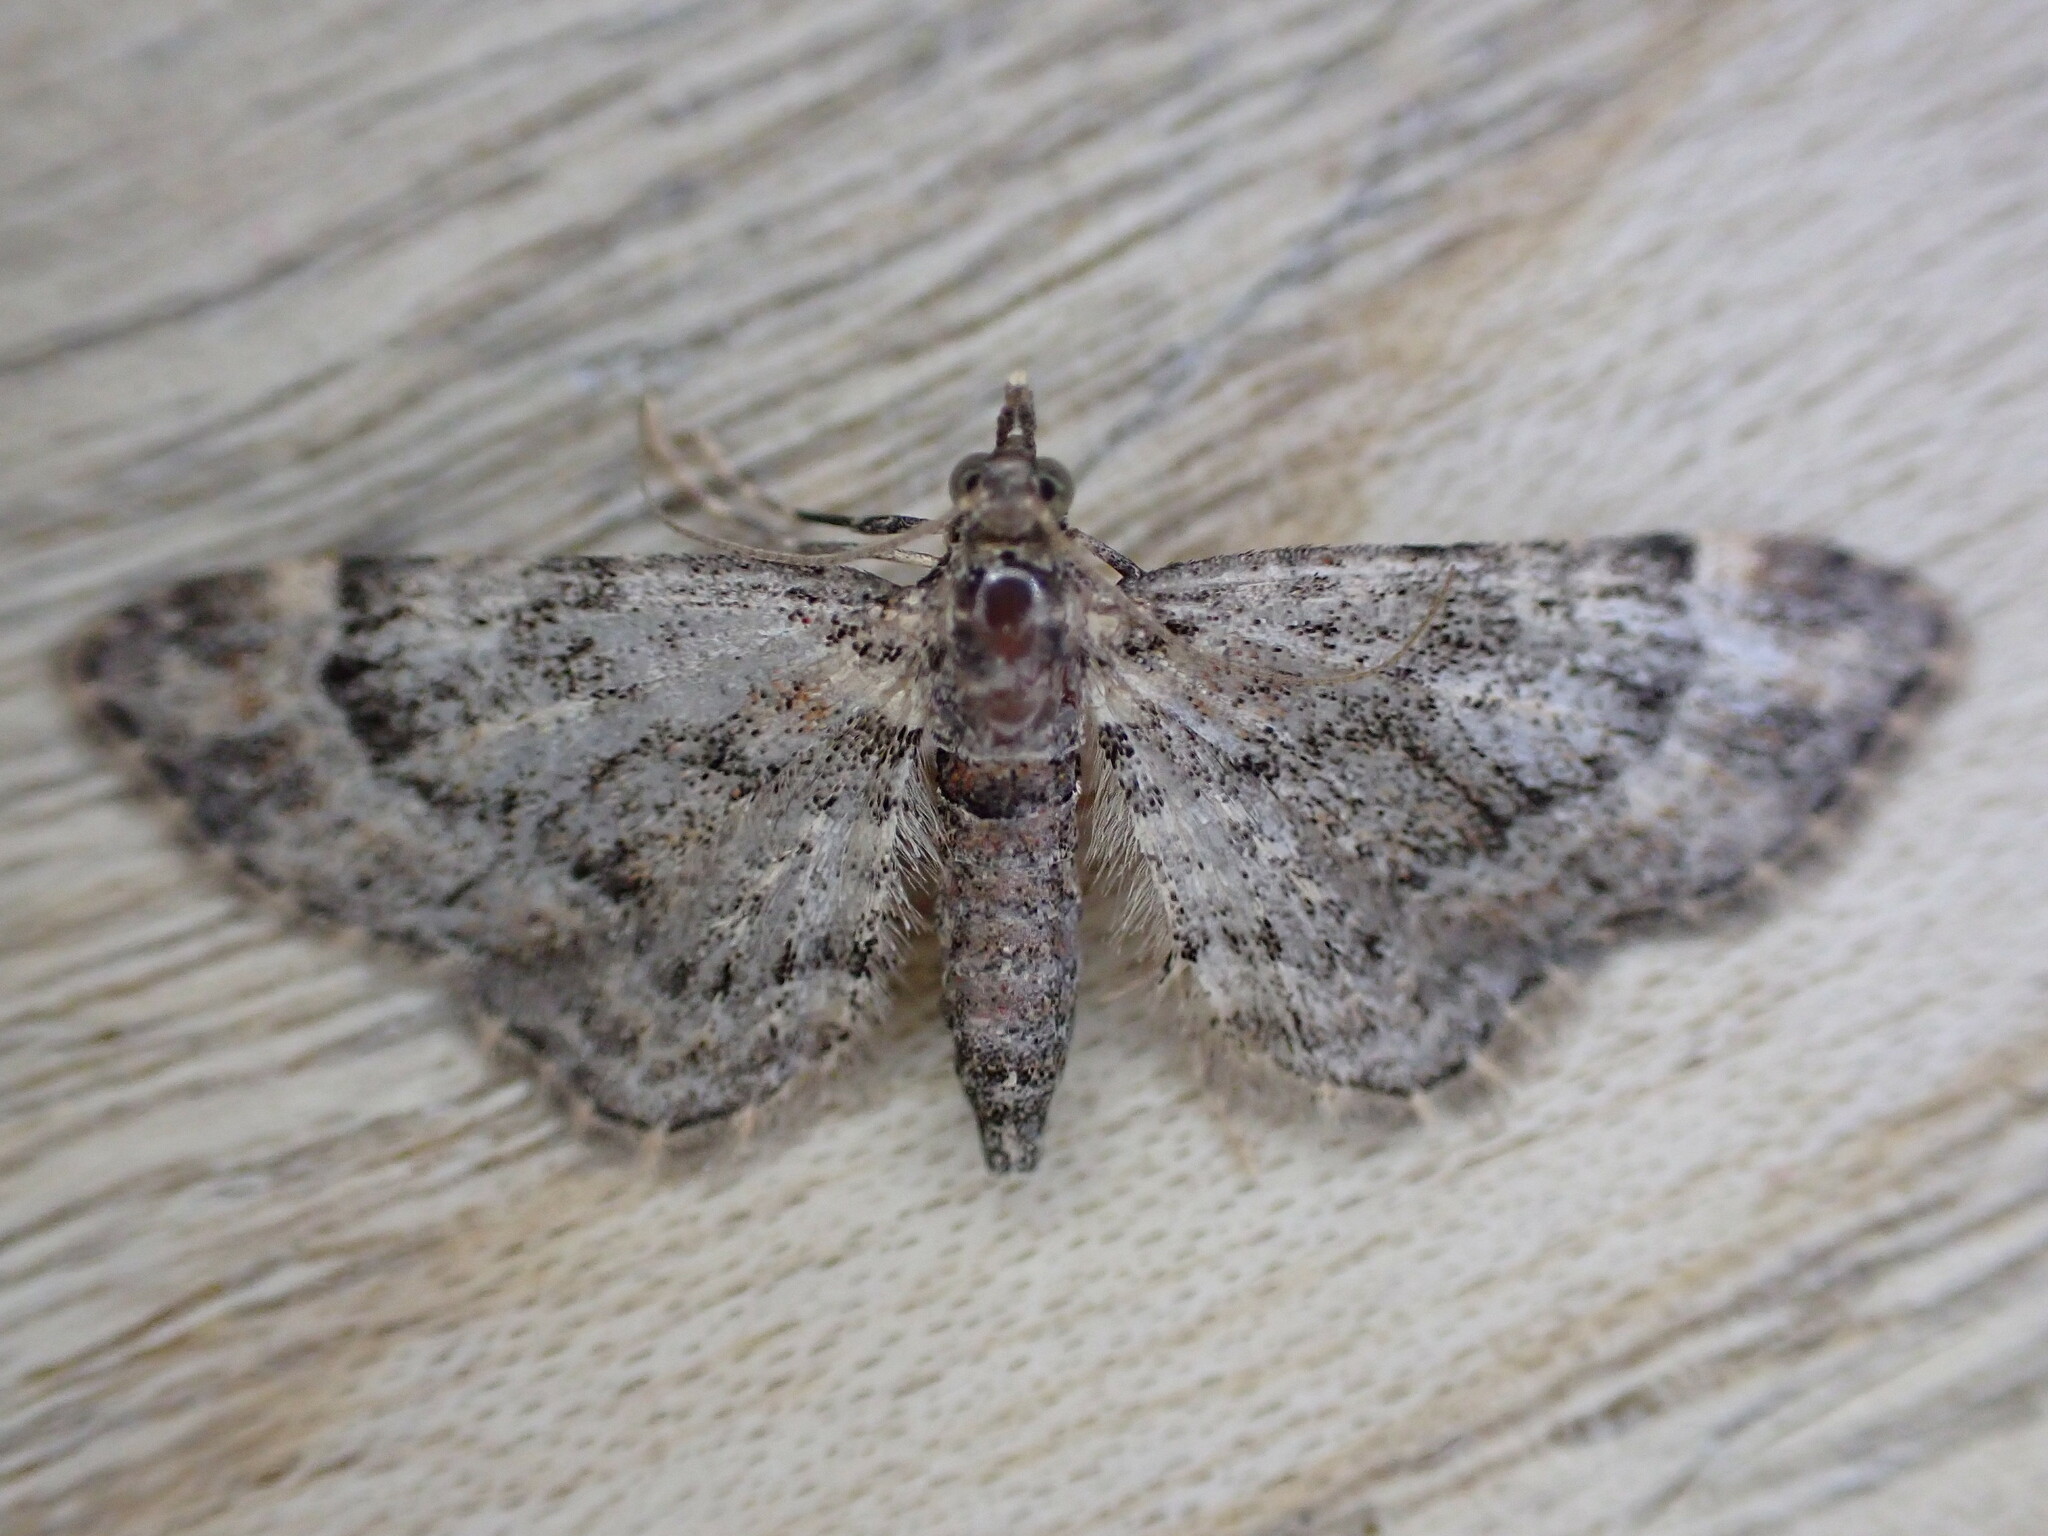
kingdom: Animalia
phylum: Arthropoda
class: Insecta
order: Lepidoptera
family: Geometridae
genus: Gymnoscelis
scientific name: Gymnoscelis rufifasciata
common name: Double-striped pug
